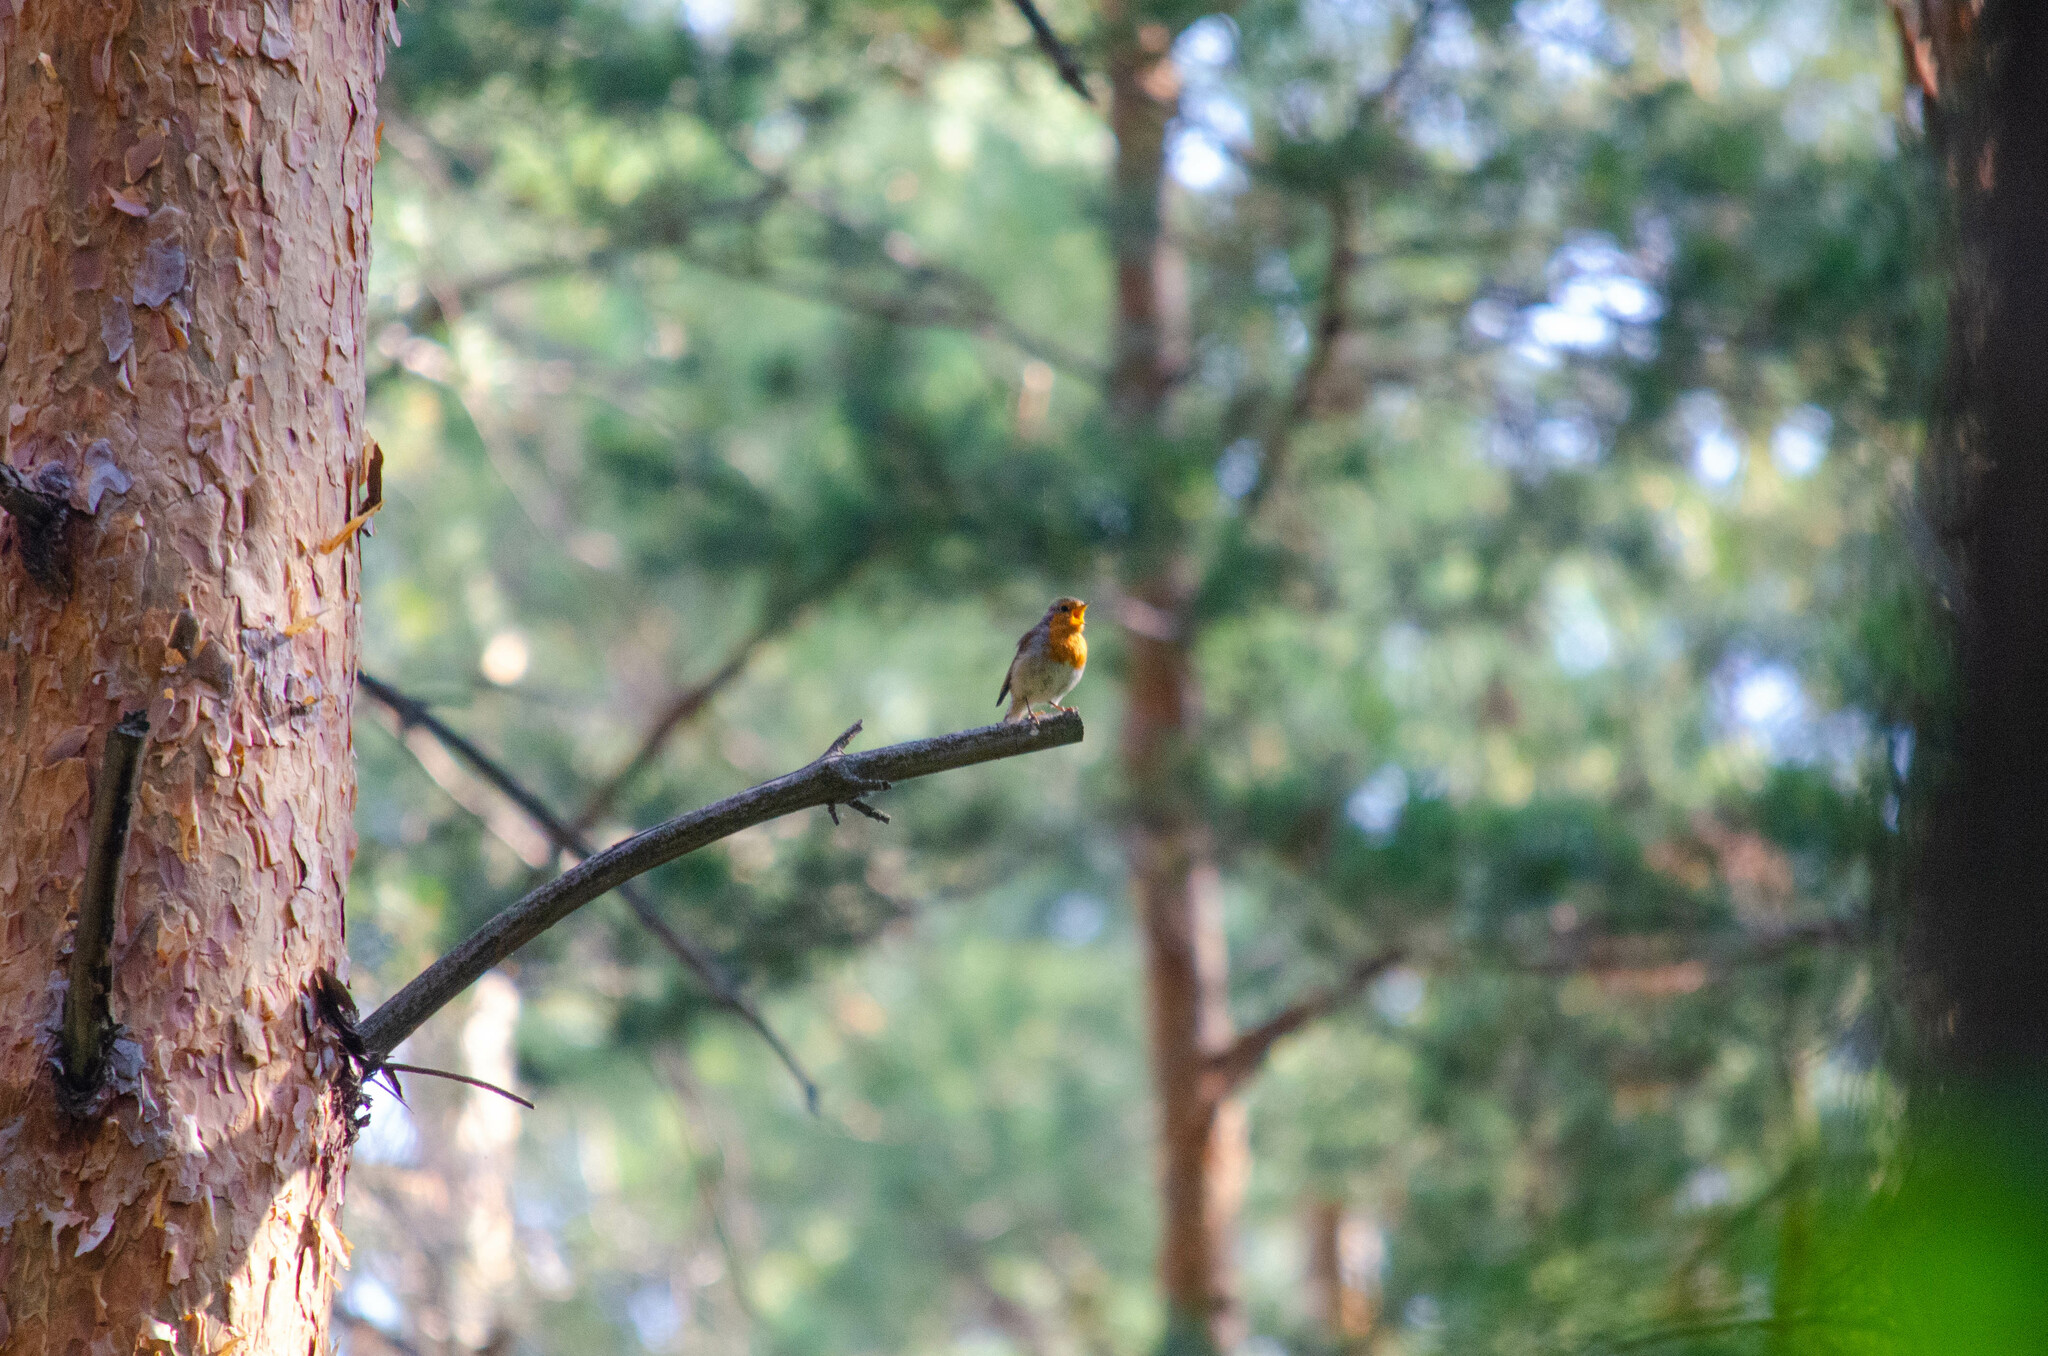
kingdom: Animalia
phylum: Chordata
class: Aves
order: Passeriformes
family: Muscicapidae
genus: Erithacus
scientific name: Erithacus rubecula
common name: European robin
